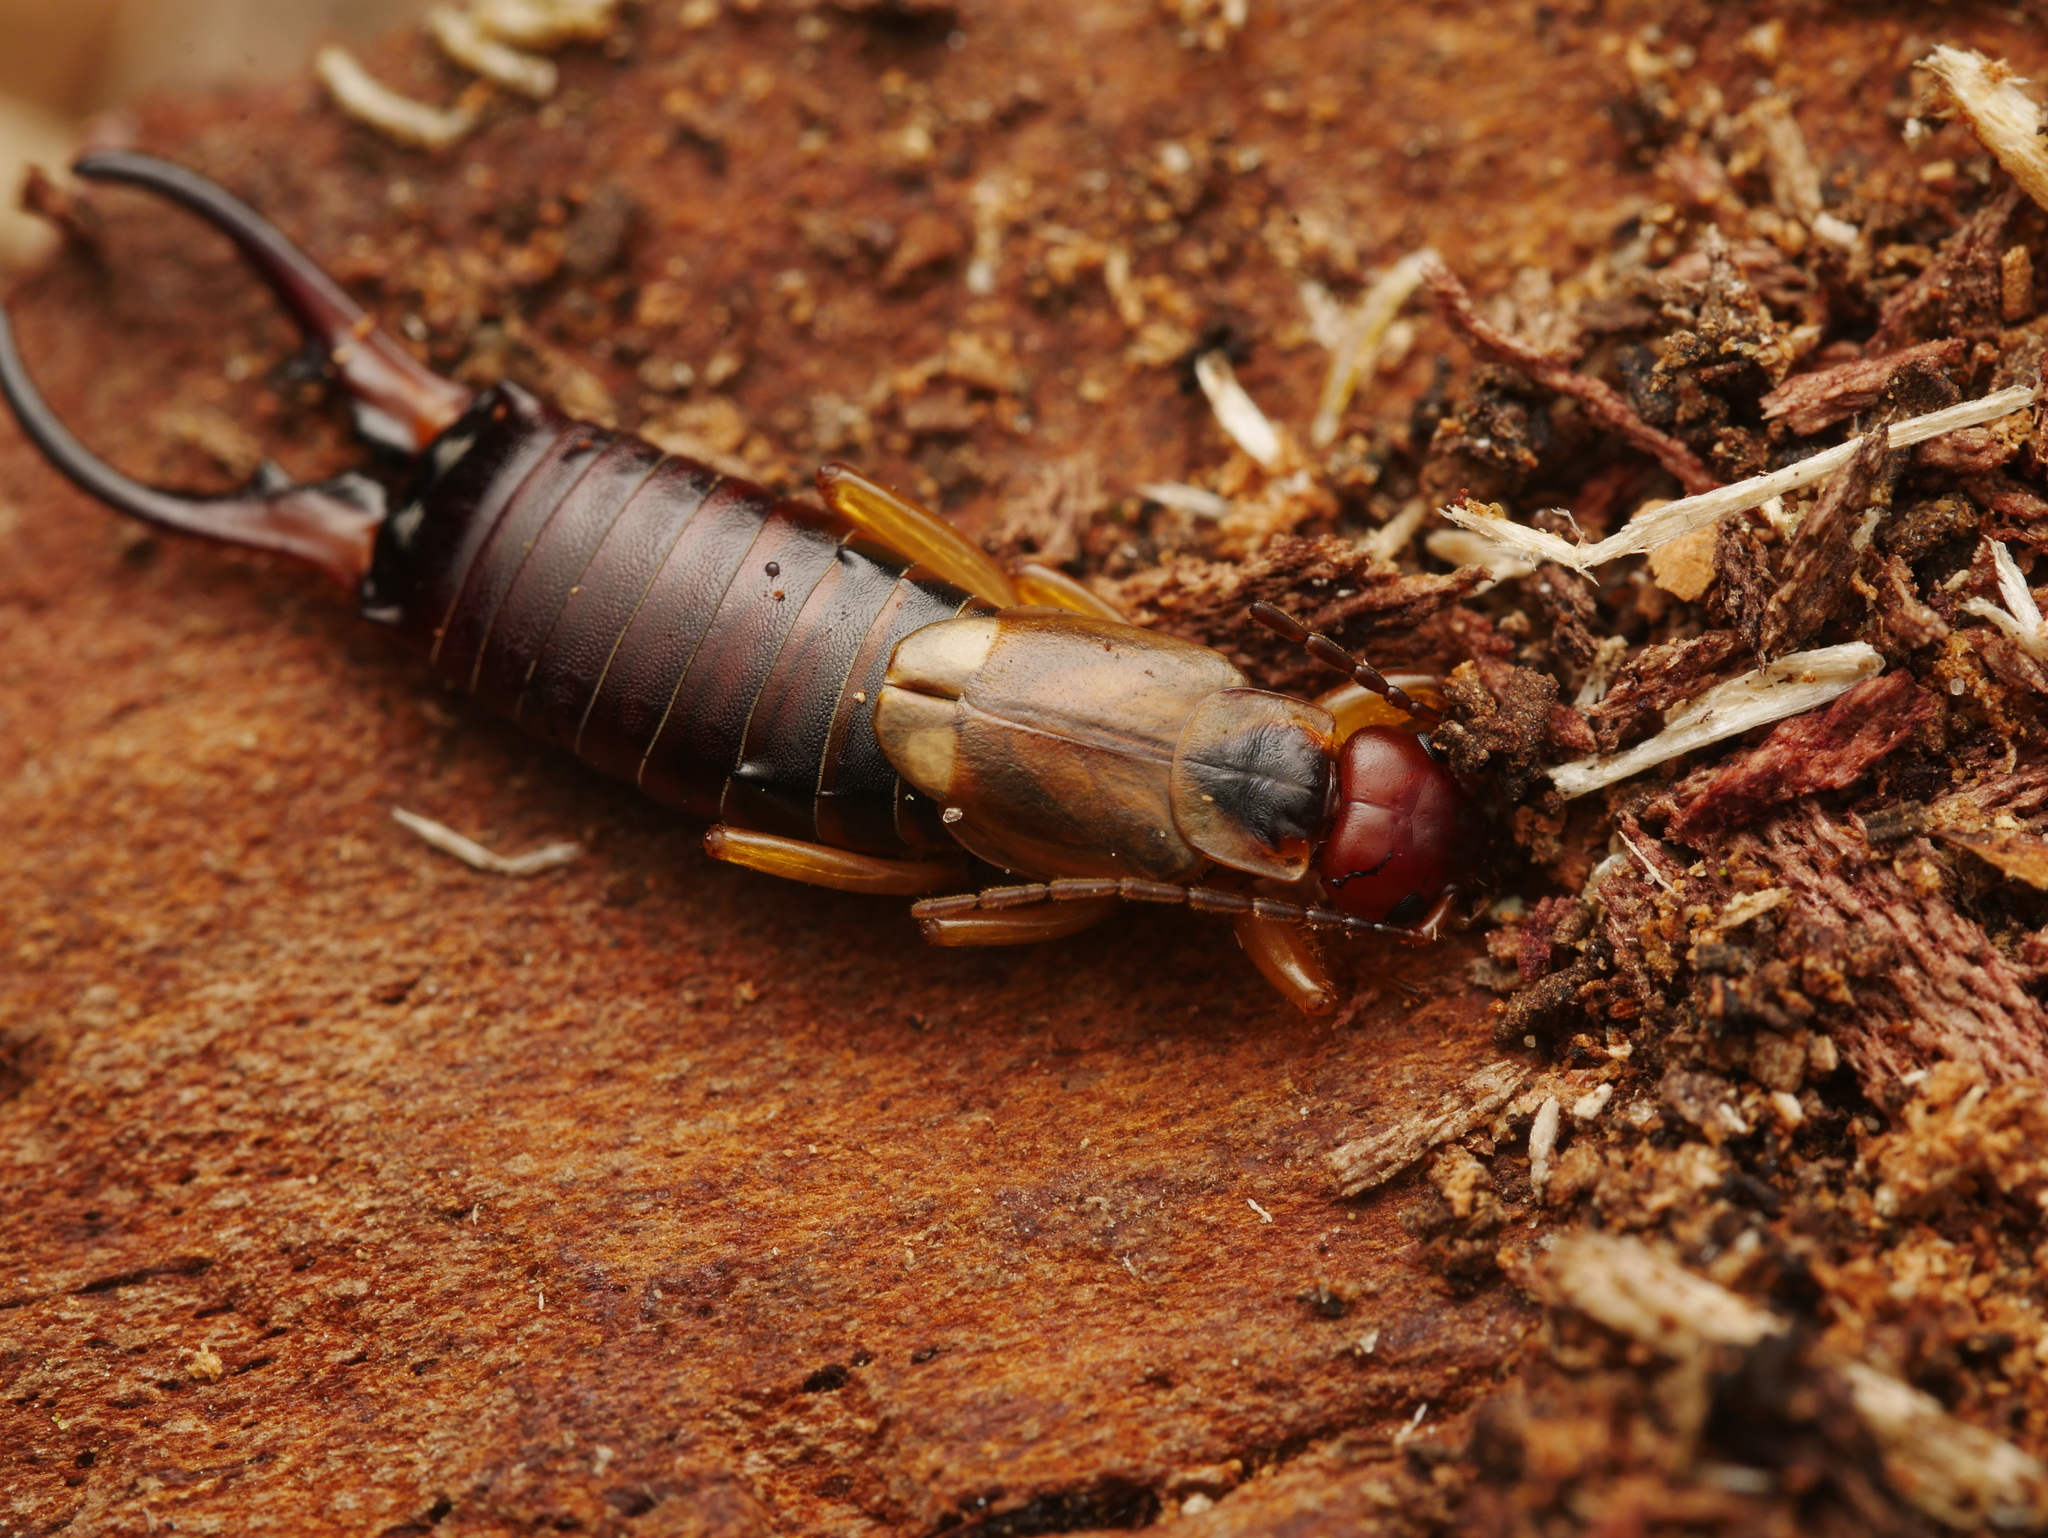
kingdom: Animalia
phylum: Arthropoda
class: Insecta
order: Dermaptera
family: Forficulidae
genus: Forficula
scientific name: Forficula
